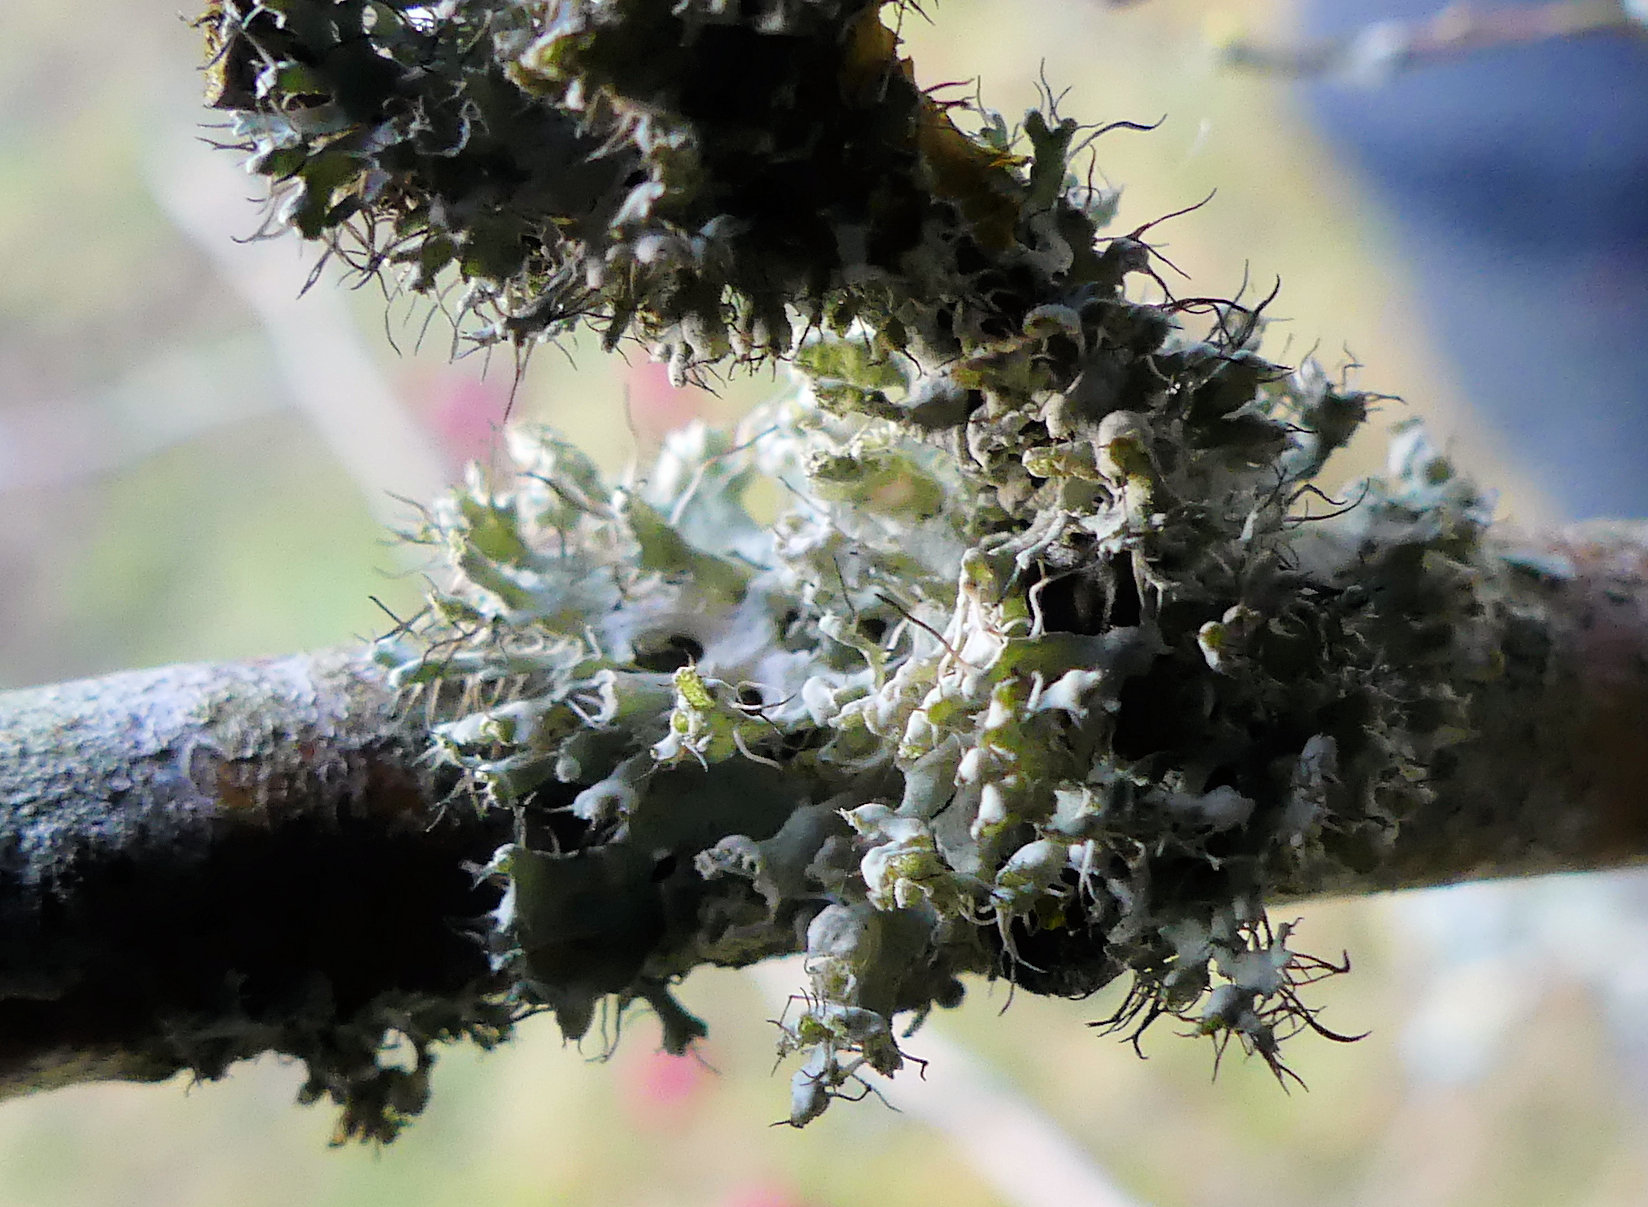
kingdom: Fungi
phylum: Ascomycota
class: Lecanoromycetes
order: Caliciales
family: Physciaceae
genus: Physcia
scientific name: Physcia adscendens
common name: Hooded rosette lichen
